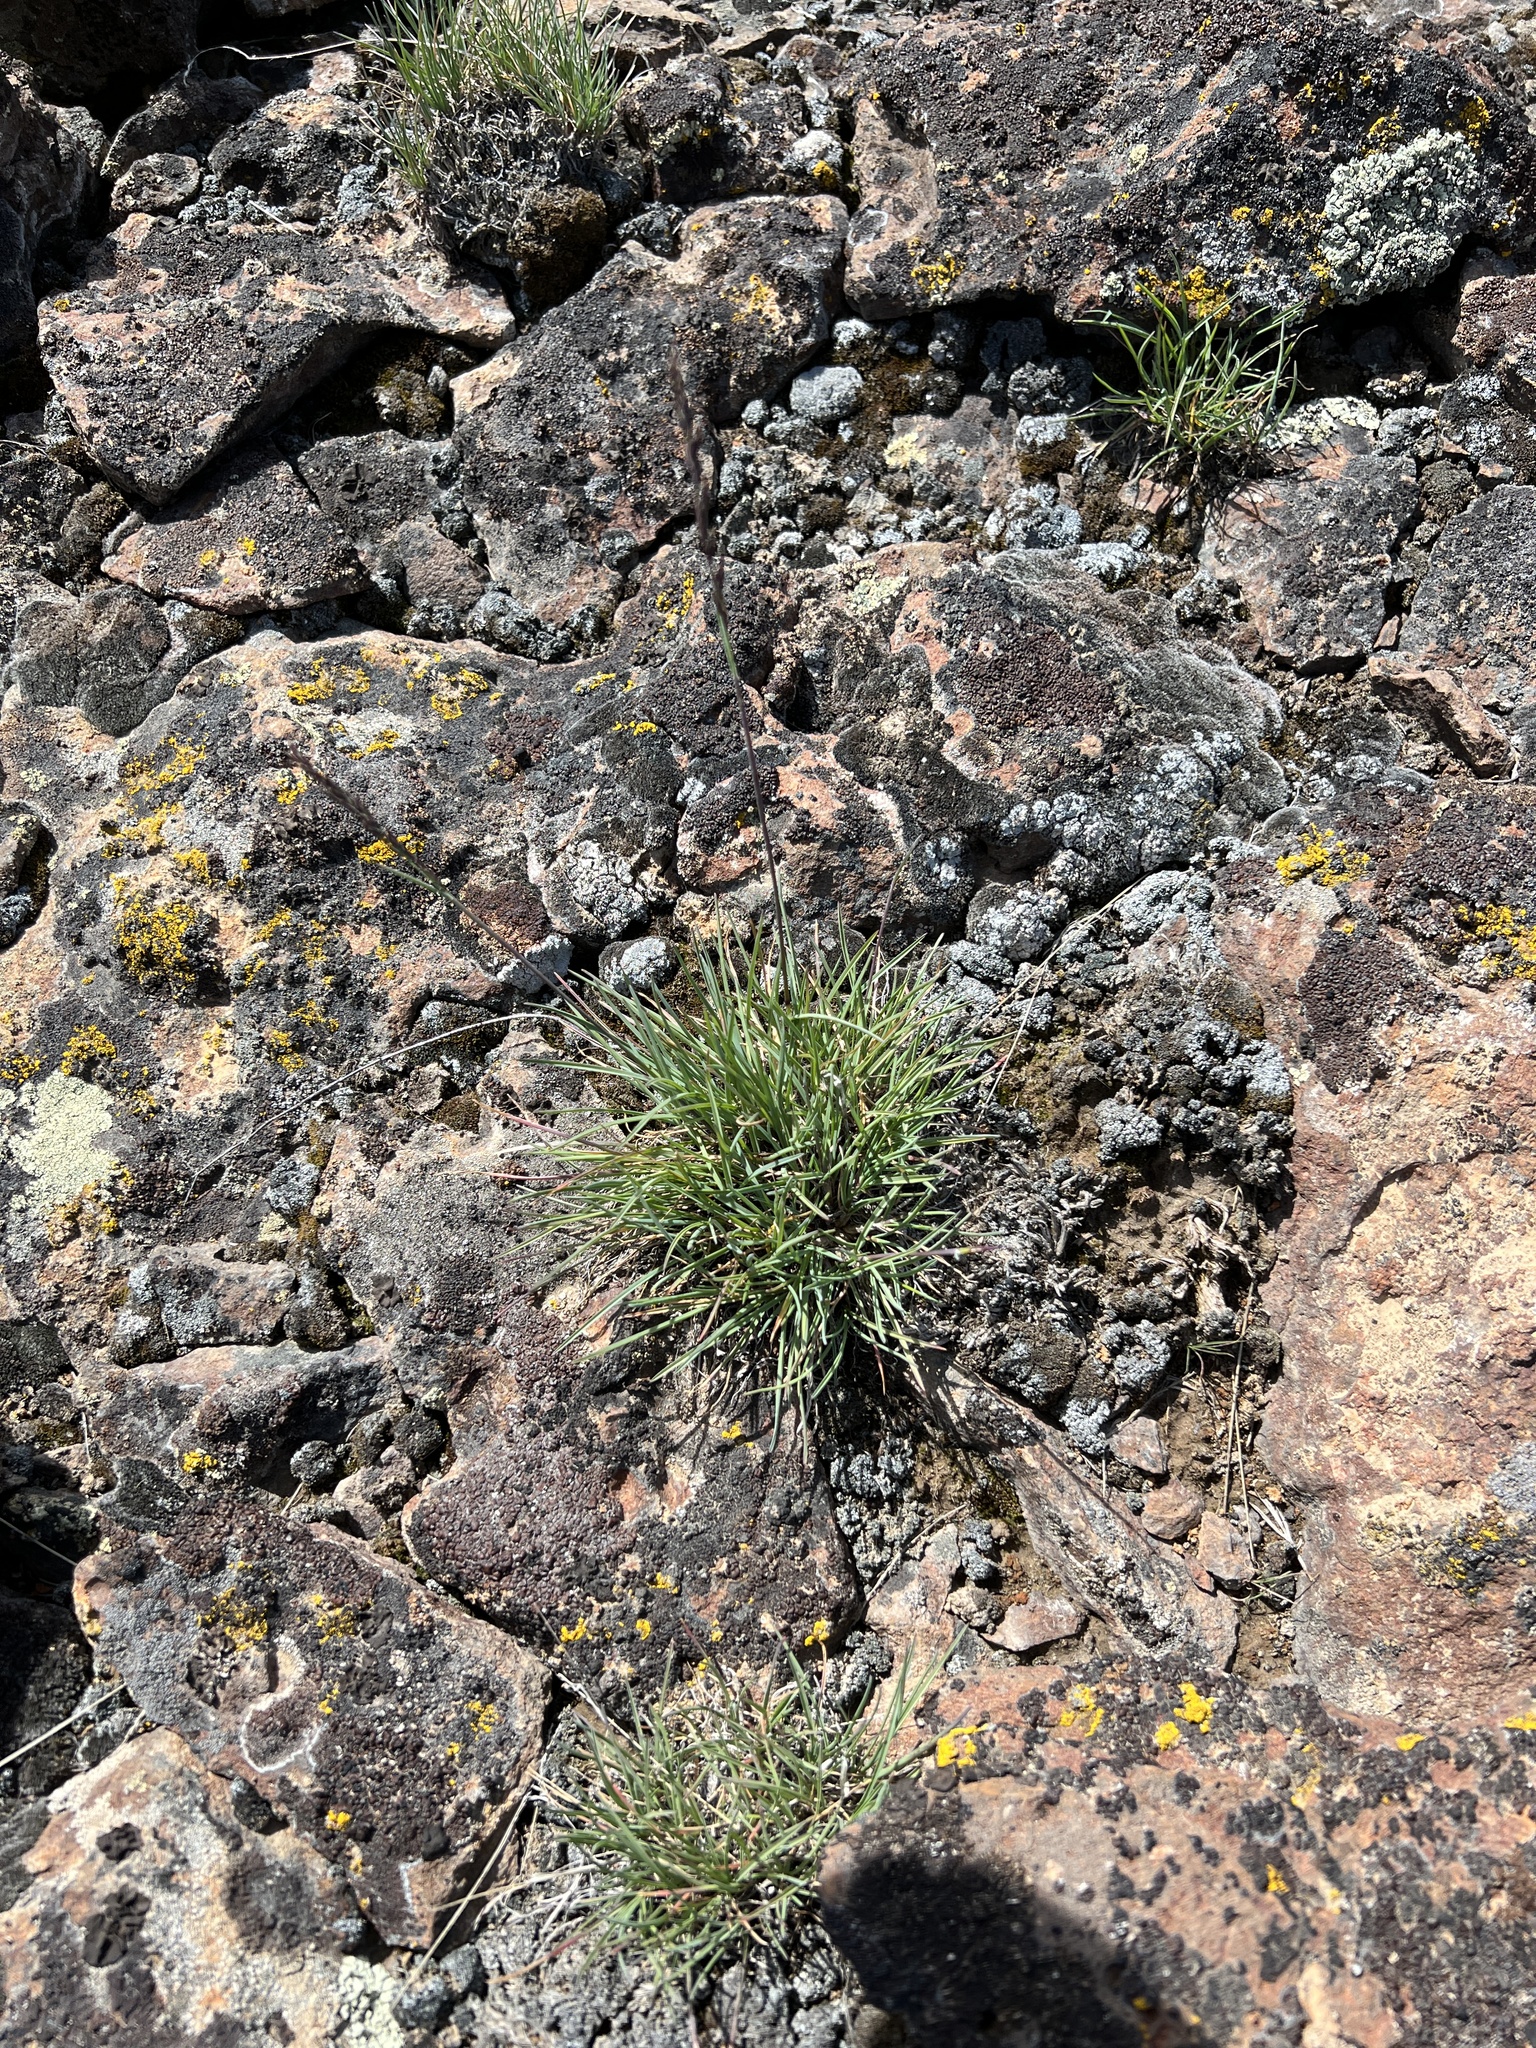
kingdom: Plantae
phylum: Tracheophyta
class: Liliopsida
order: Poales
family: Poaceae
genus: Poa
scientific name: Poa secunda
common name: Sandberg bluegrass
